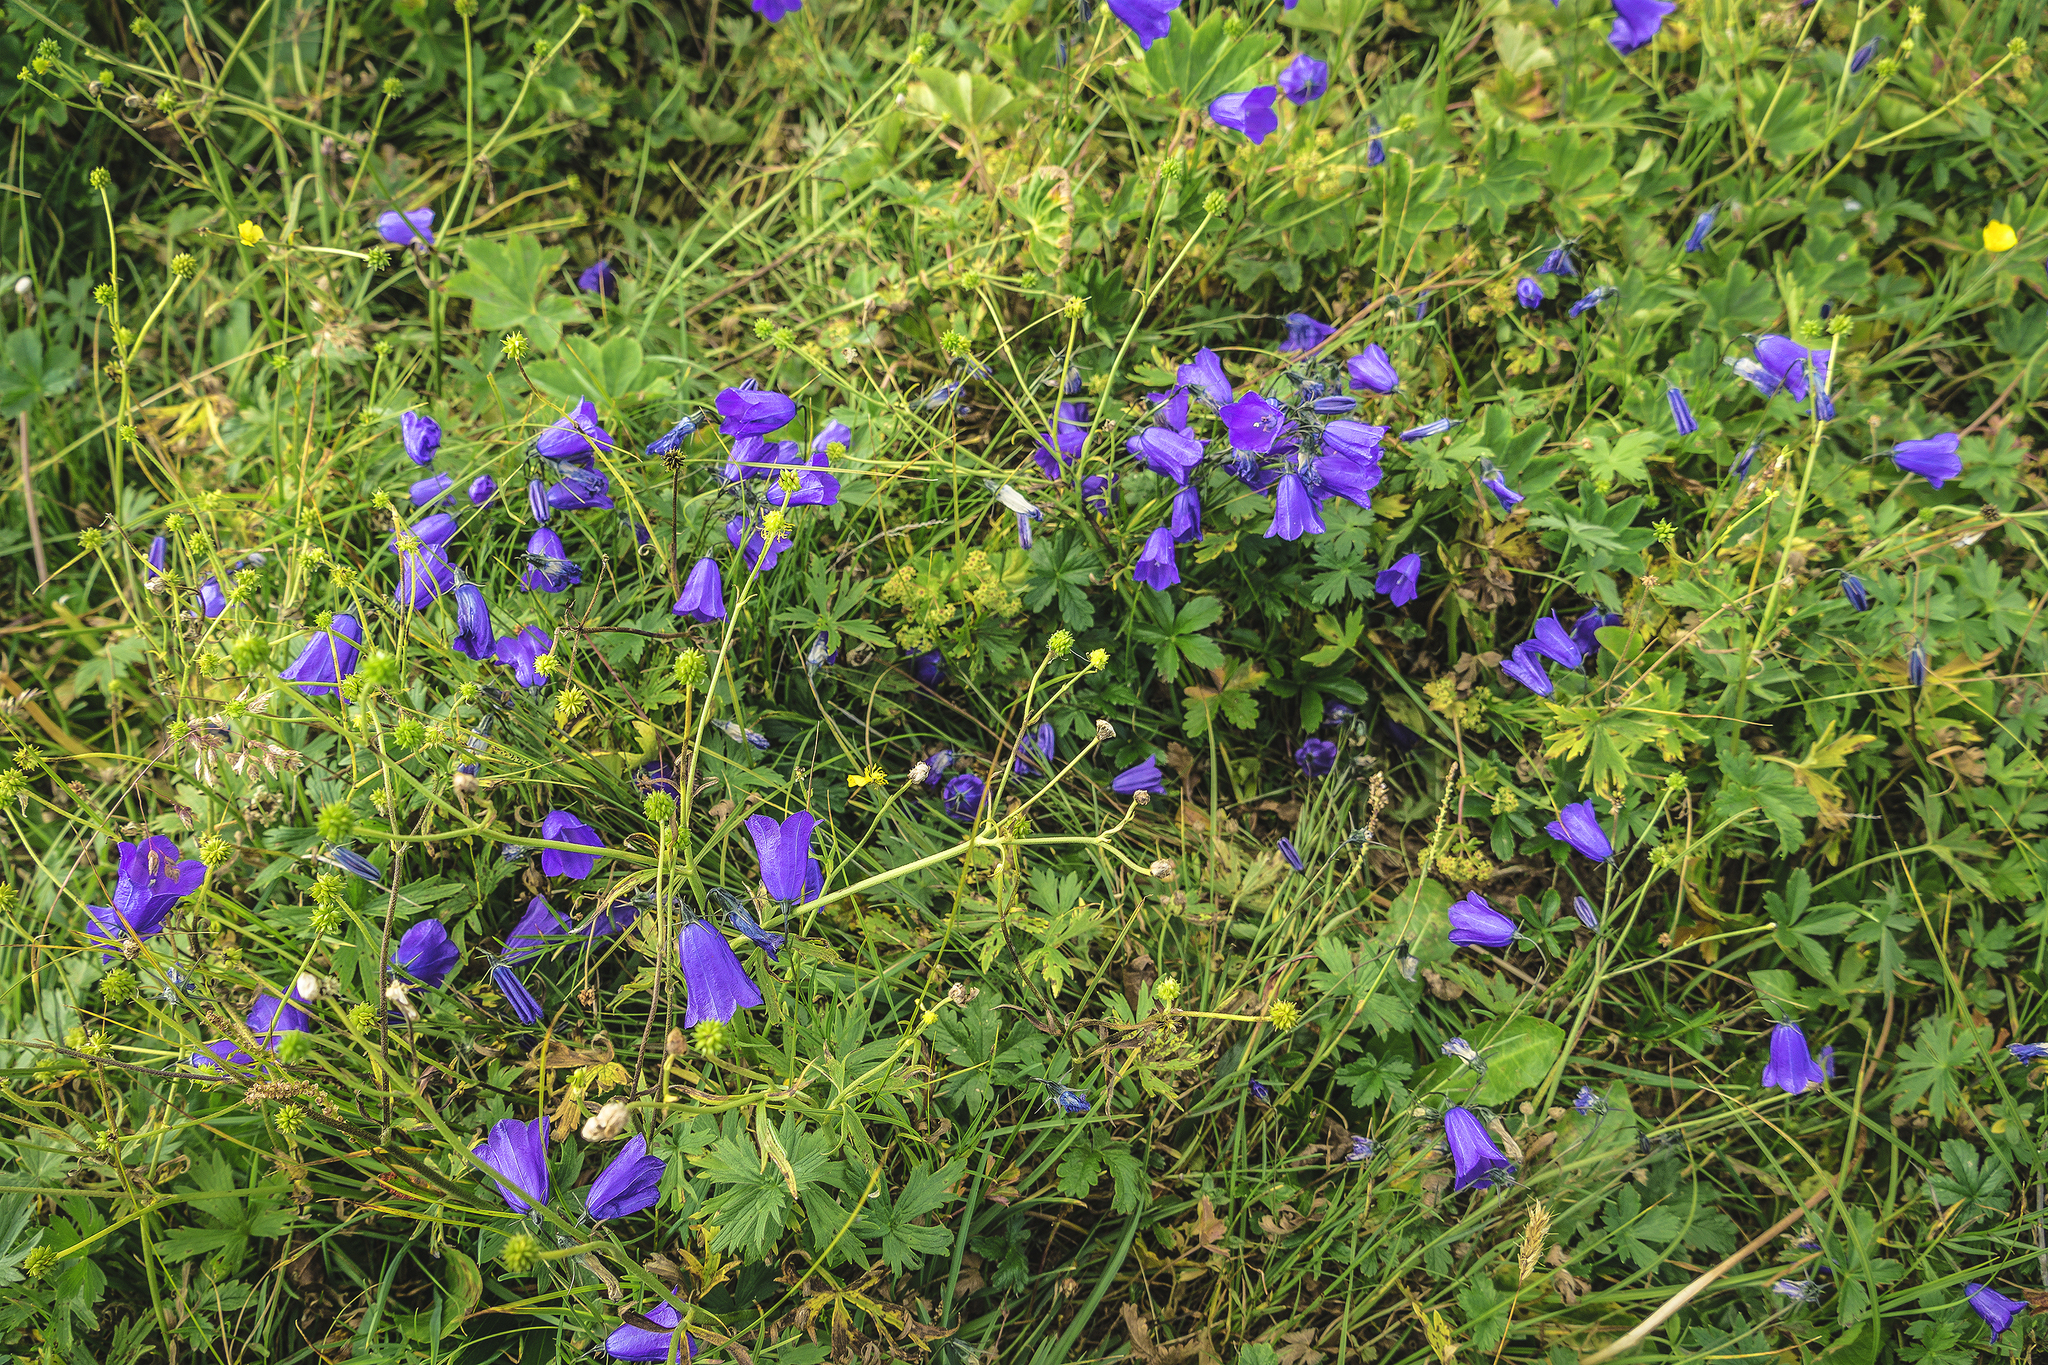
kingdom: Plantae
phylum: Tracheophyta
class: Magnoliopsida
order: Asterales
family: Campanulaceae
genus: Campanula
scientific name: Campanula scheuchzeri
